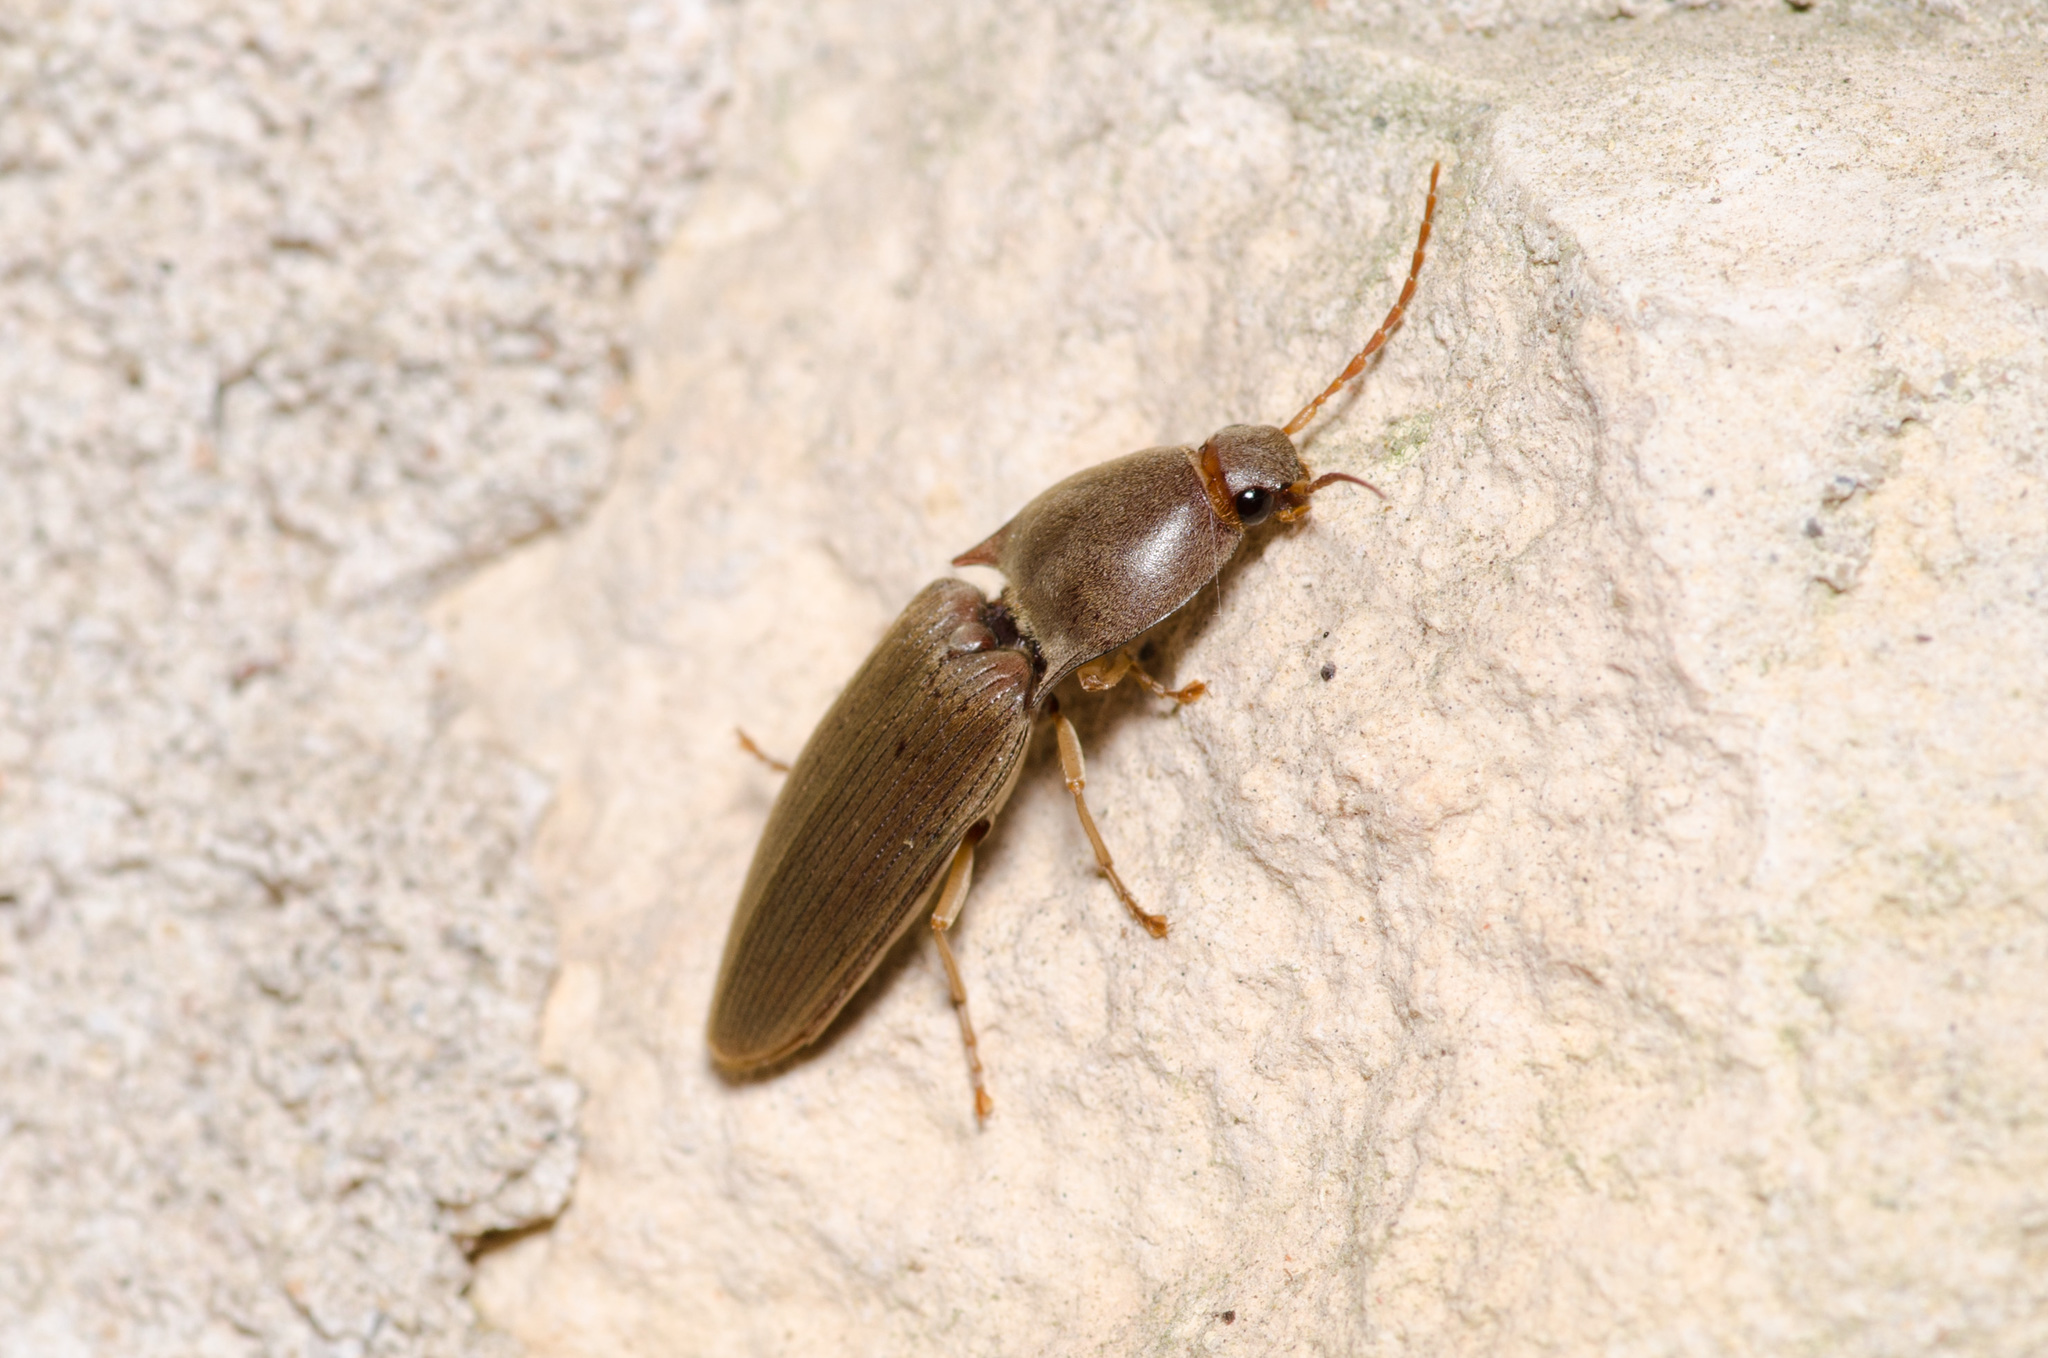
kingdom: Animalia
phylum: Arthropoda
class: Insecta
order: Coleoptera
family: Elateridae
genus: Monocrepidius
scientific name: Monocrepidius lividus
